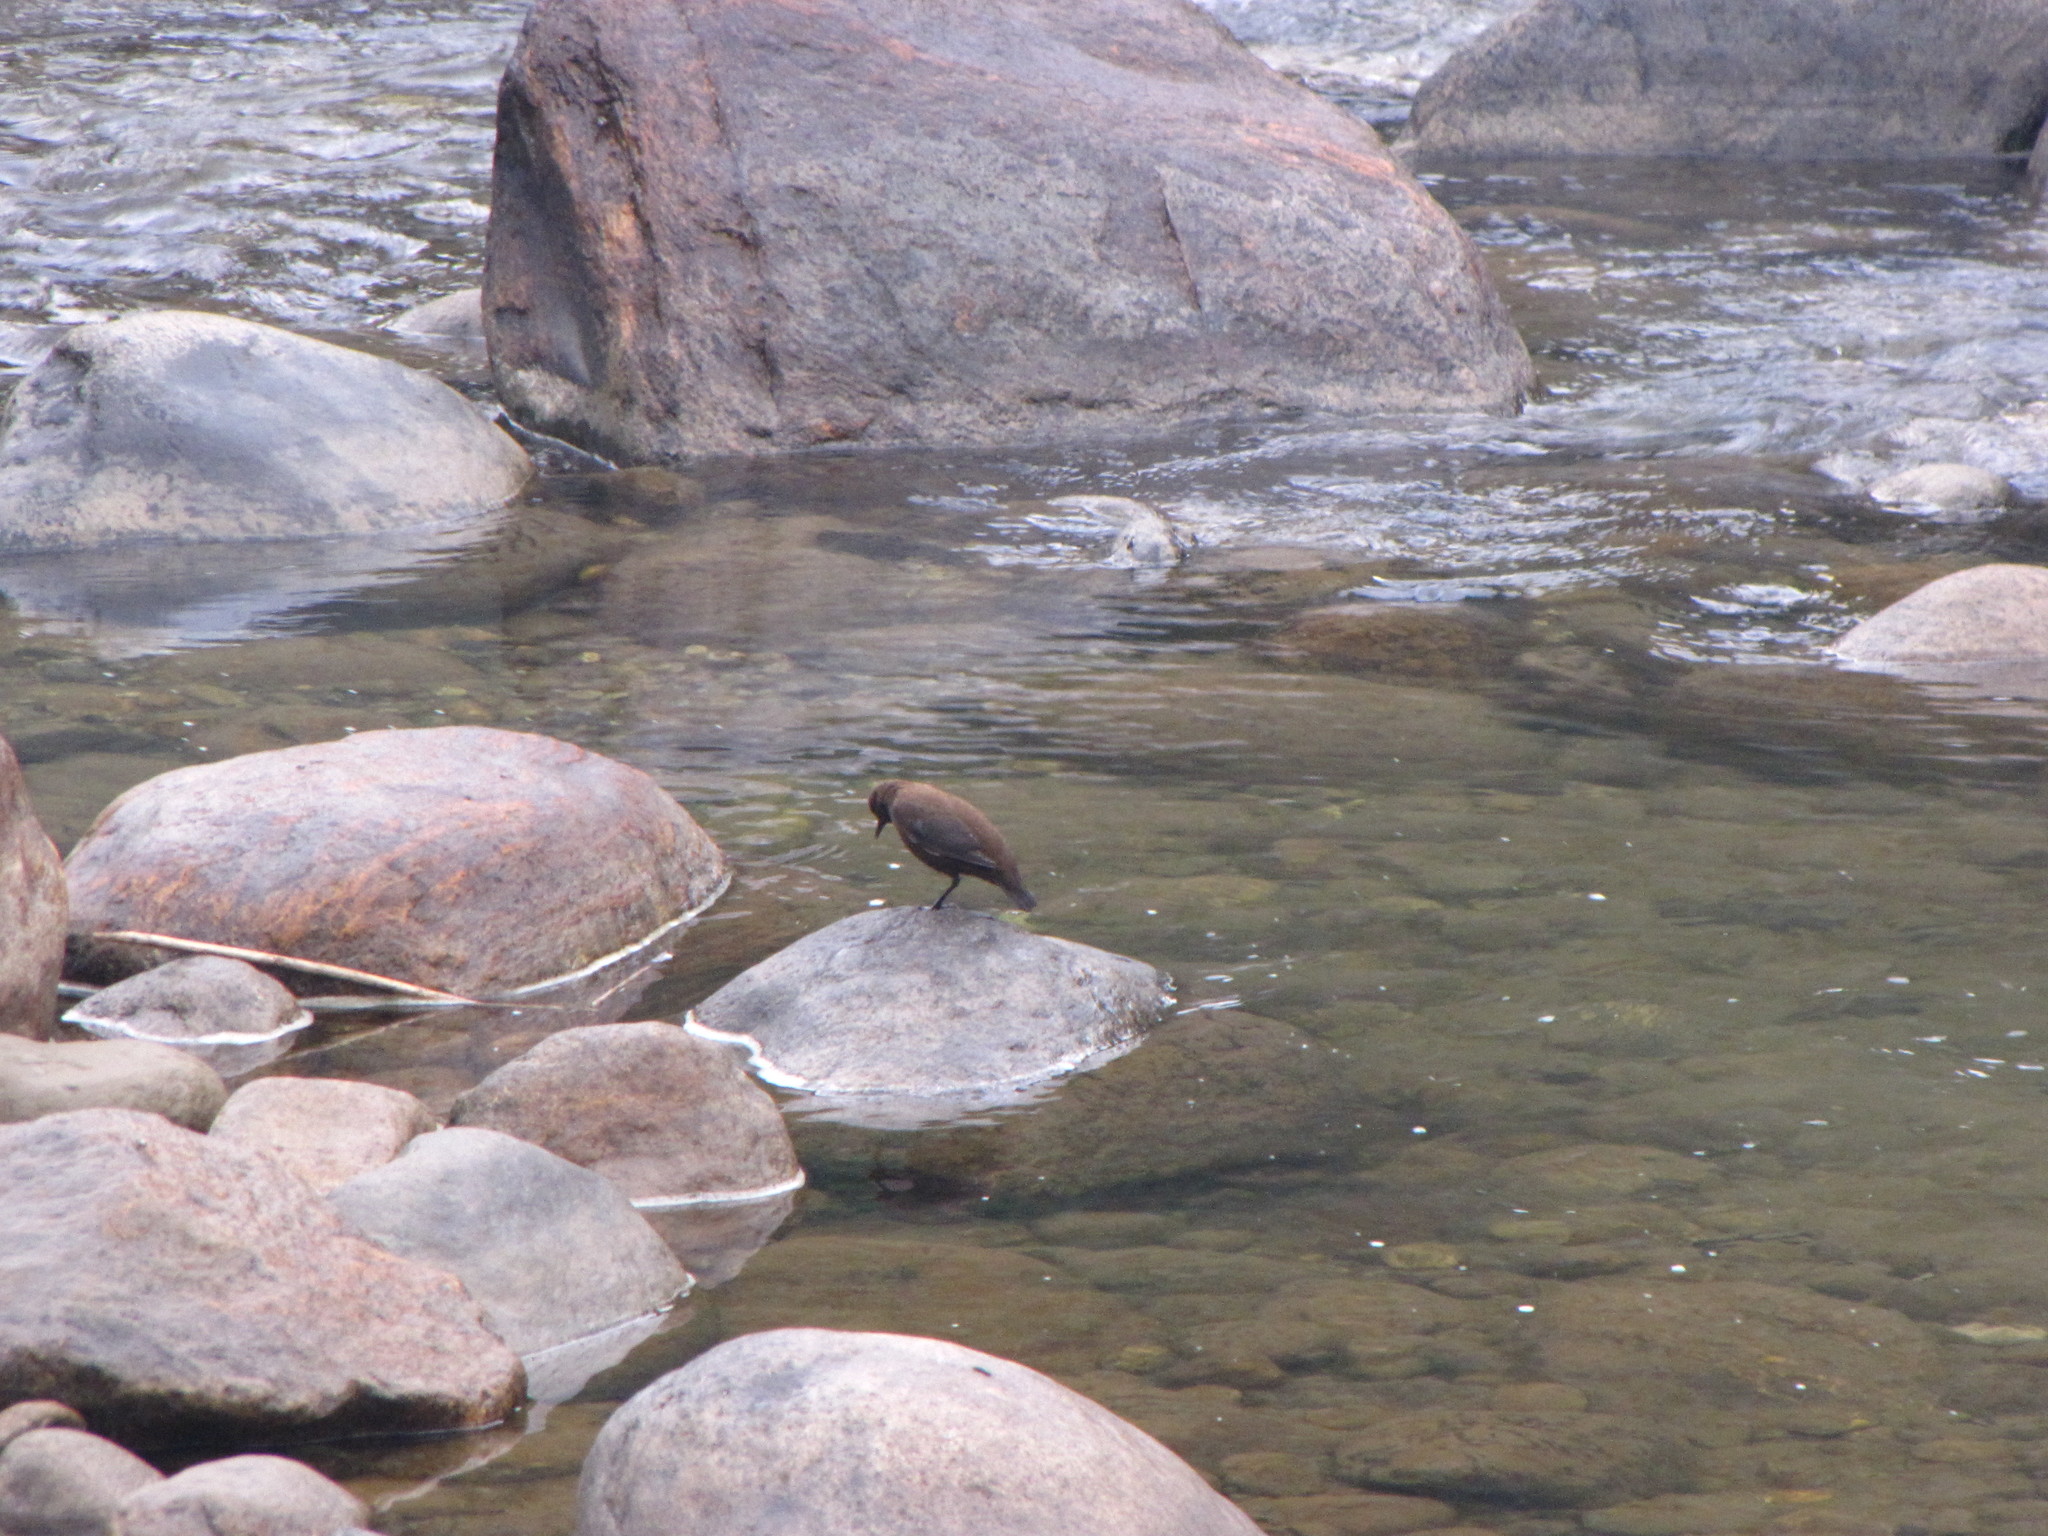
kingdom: Animalia
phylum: Chordata
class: Aves
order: Passeriformes
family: Cinclidae
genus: Cinclus
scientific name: Cinclus pallasii
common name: Brown dipper
